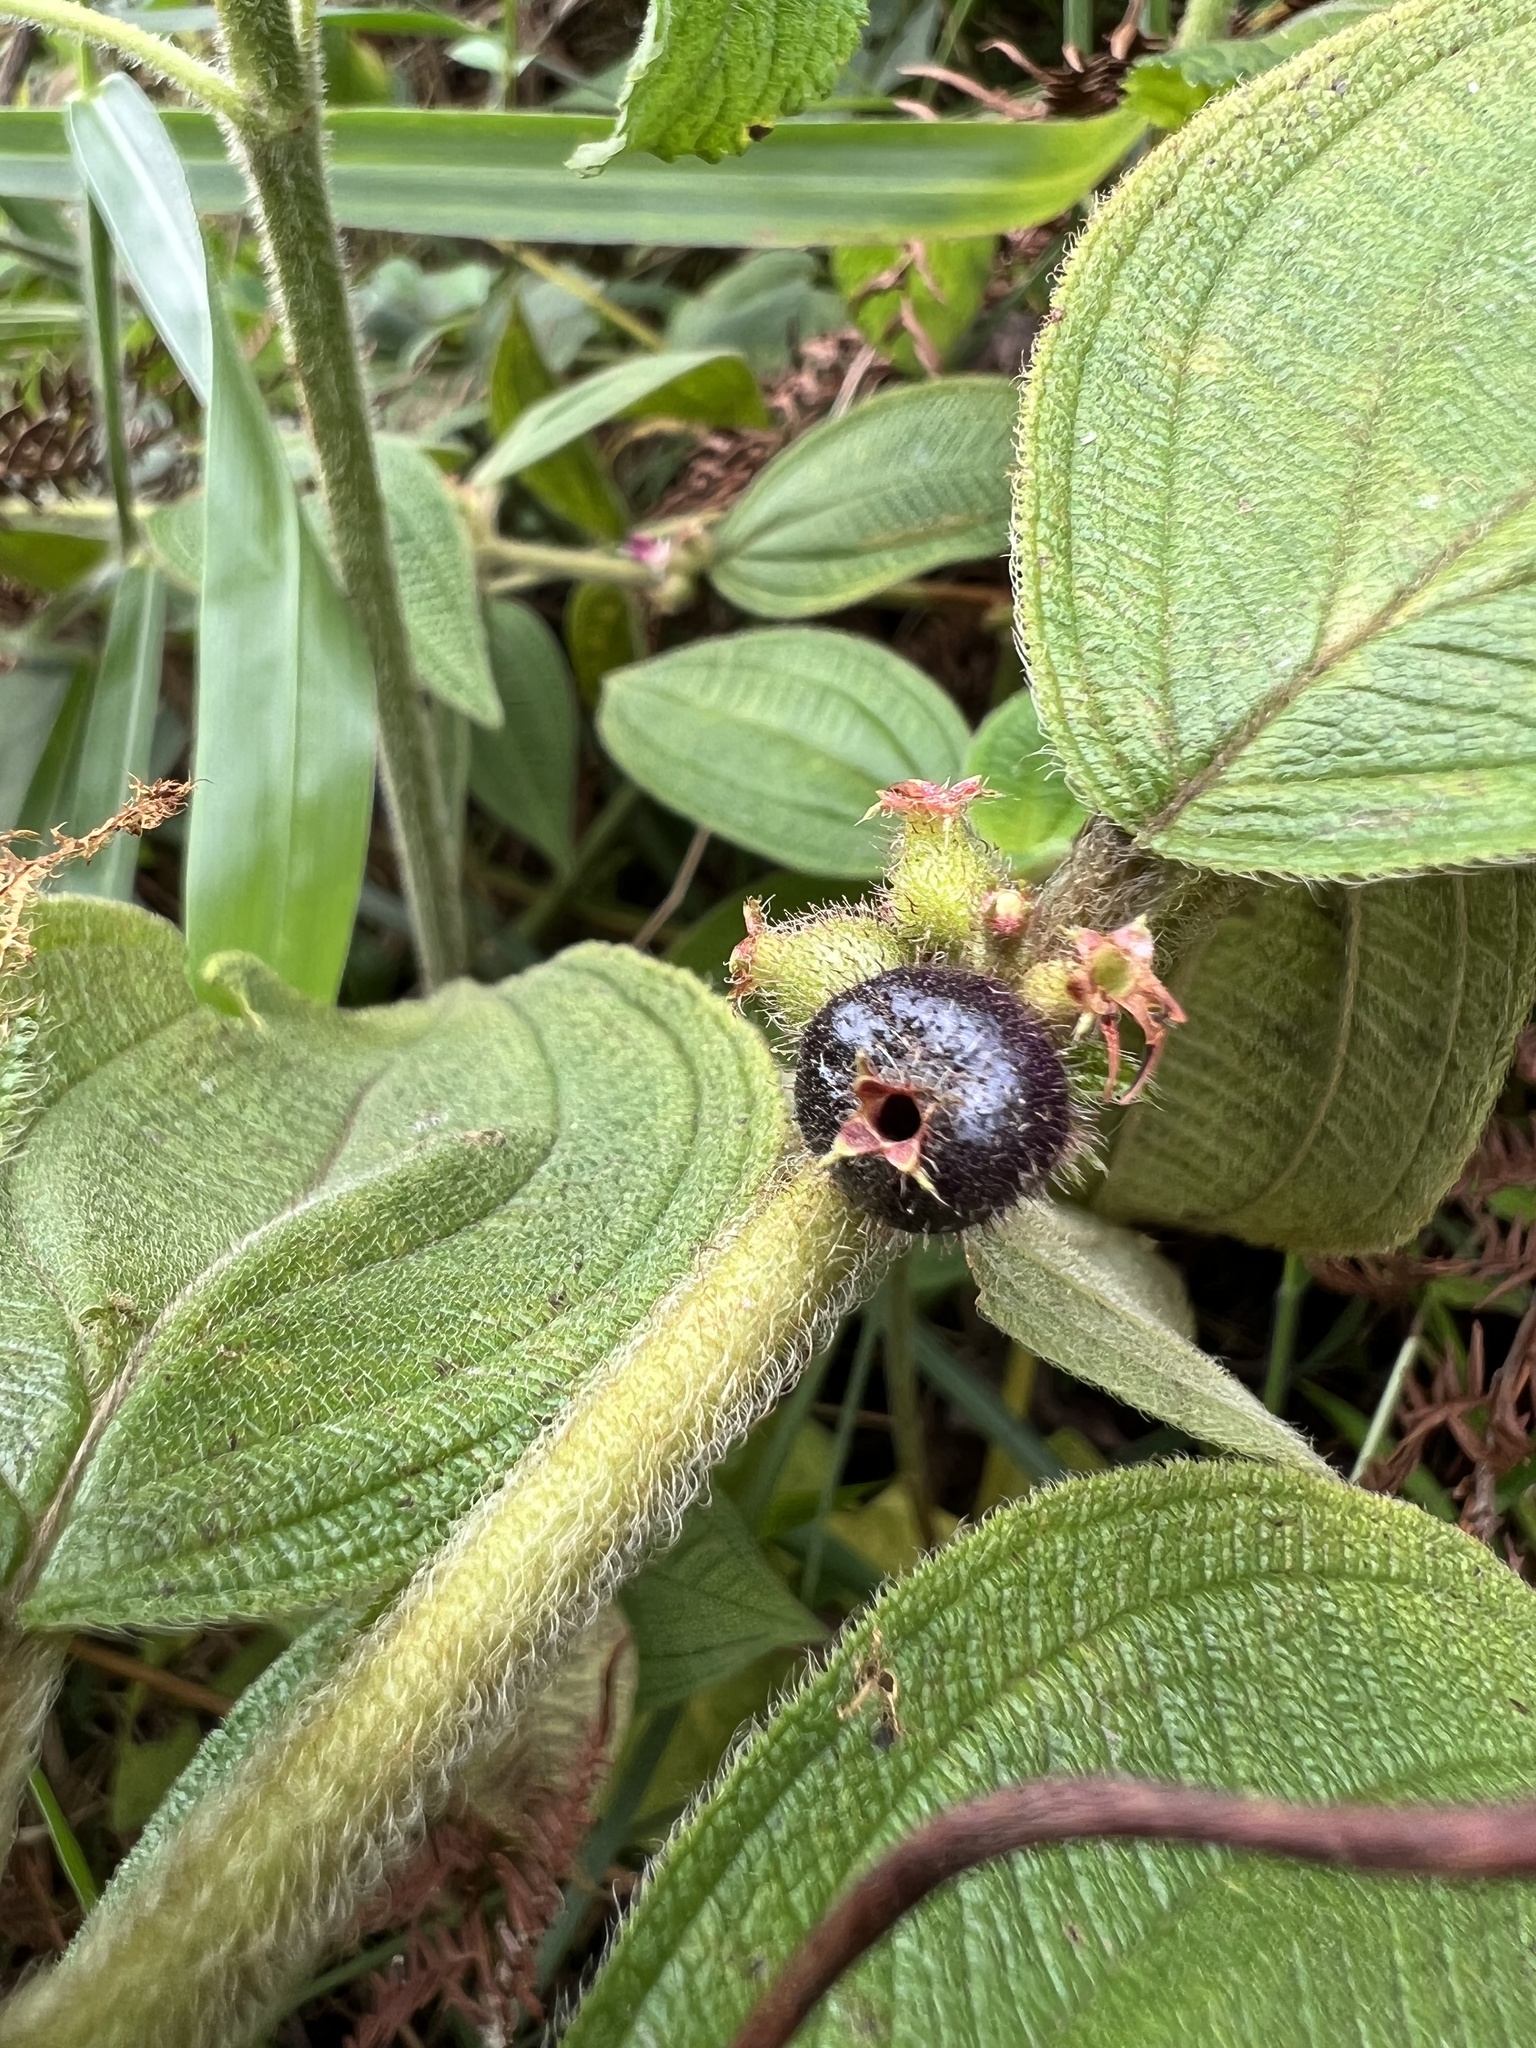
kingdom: Plantae
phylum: Tracheophyta
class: Magnoliopsida
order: Myrtales
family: Melastomataceae
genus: Miconia
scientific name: Miconia rubra
